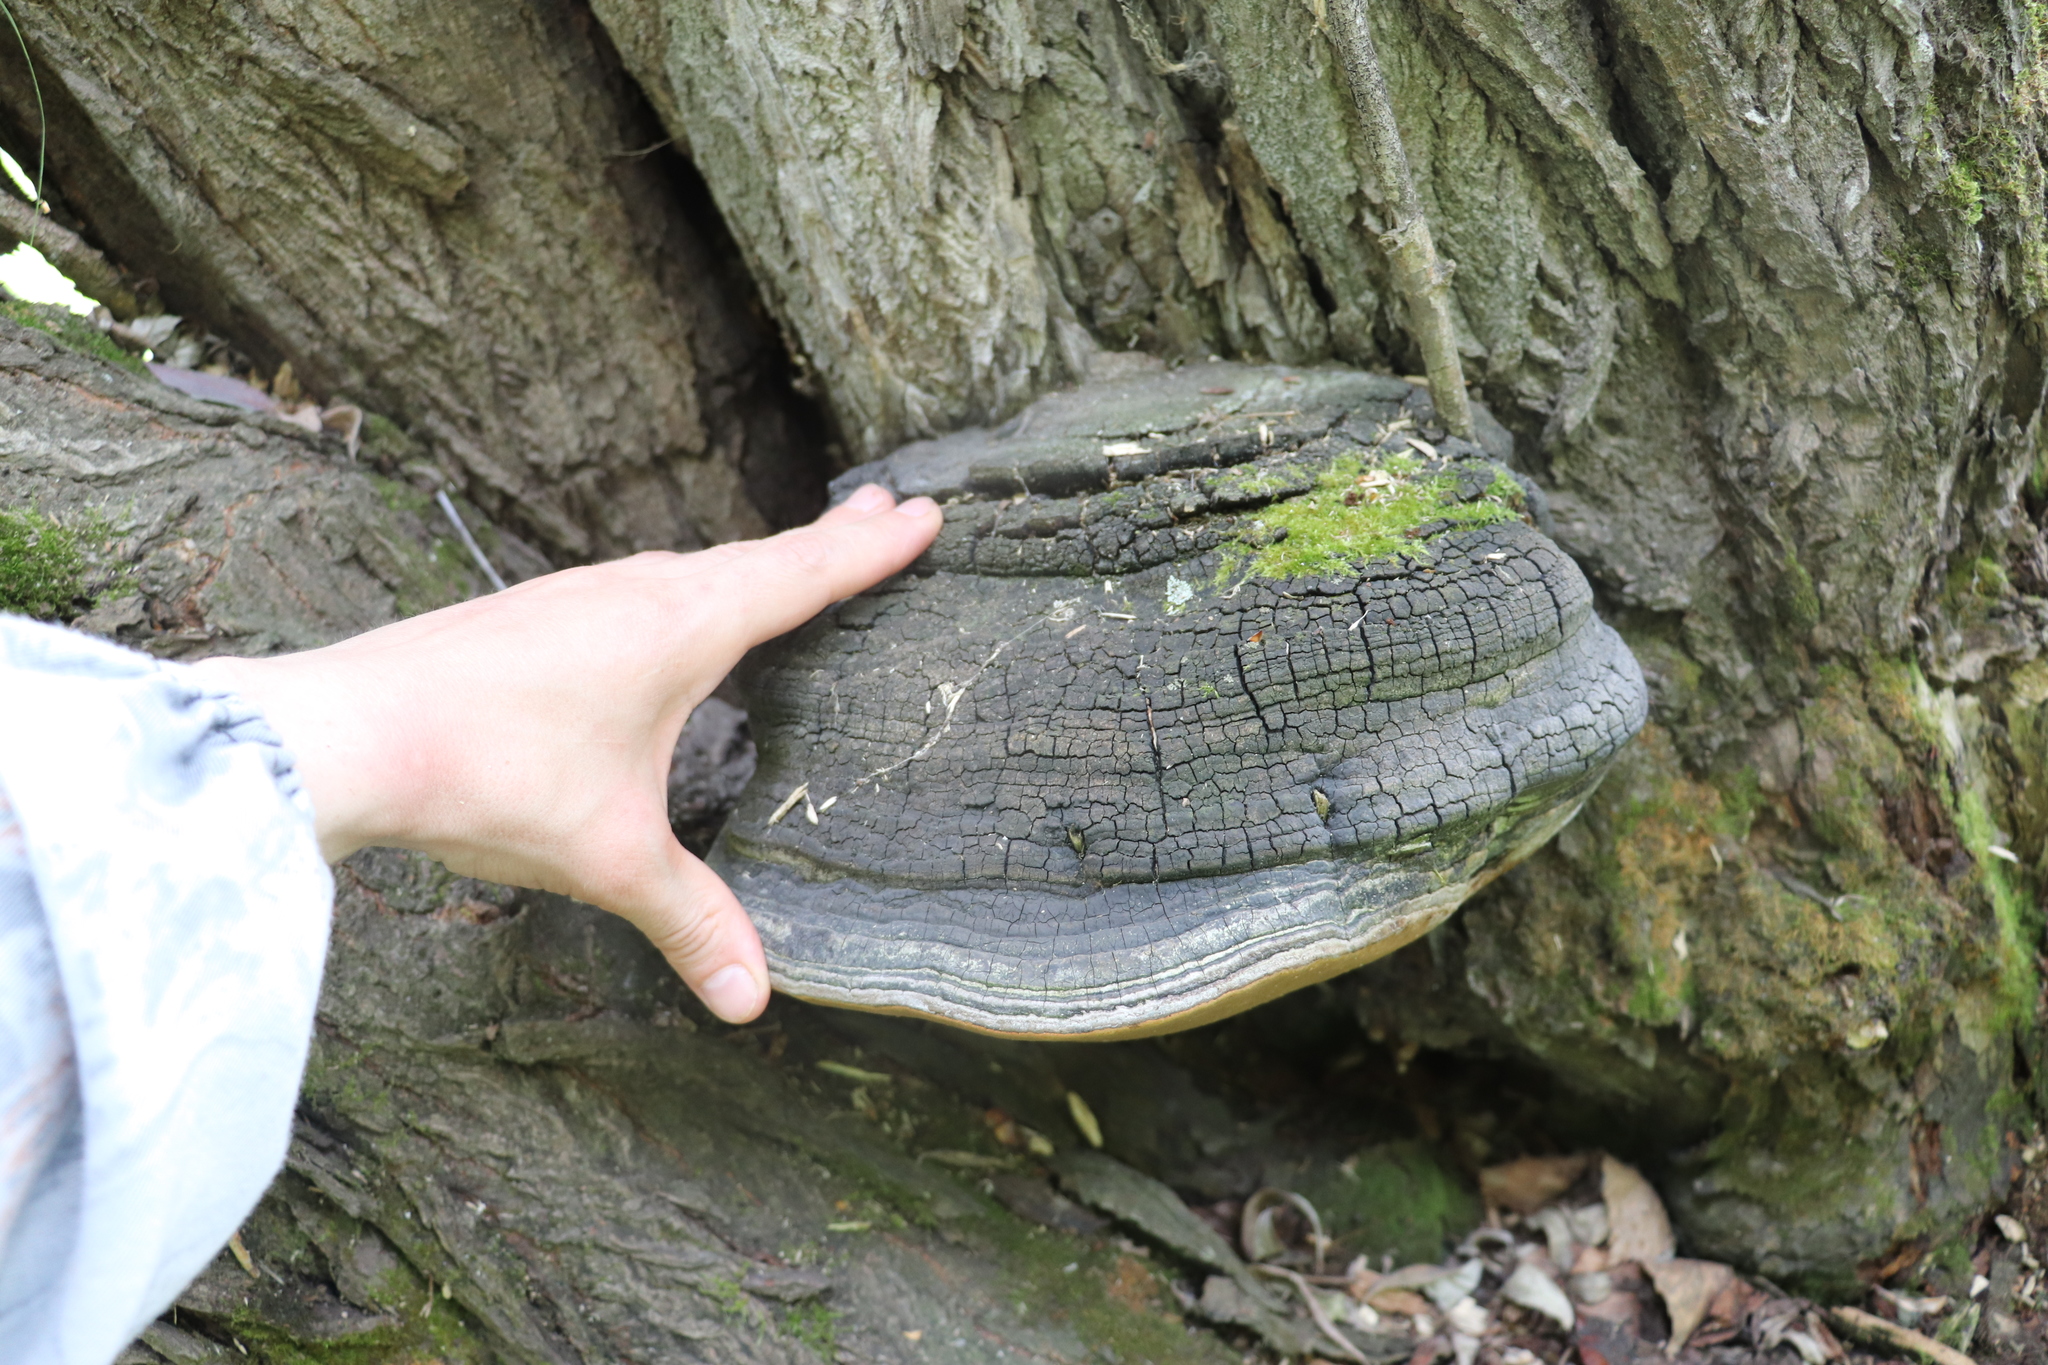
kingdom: Fungi
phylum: Basidiomycota
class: Agaricomycetes
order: Hymenochaetales
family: Hymenochaetaceae
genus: Phellinus
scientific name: Phellinus igniarius
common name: Willow bracket
